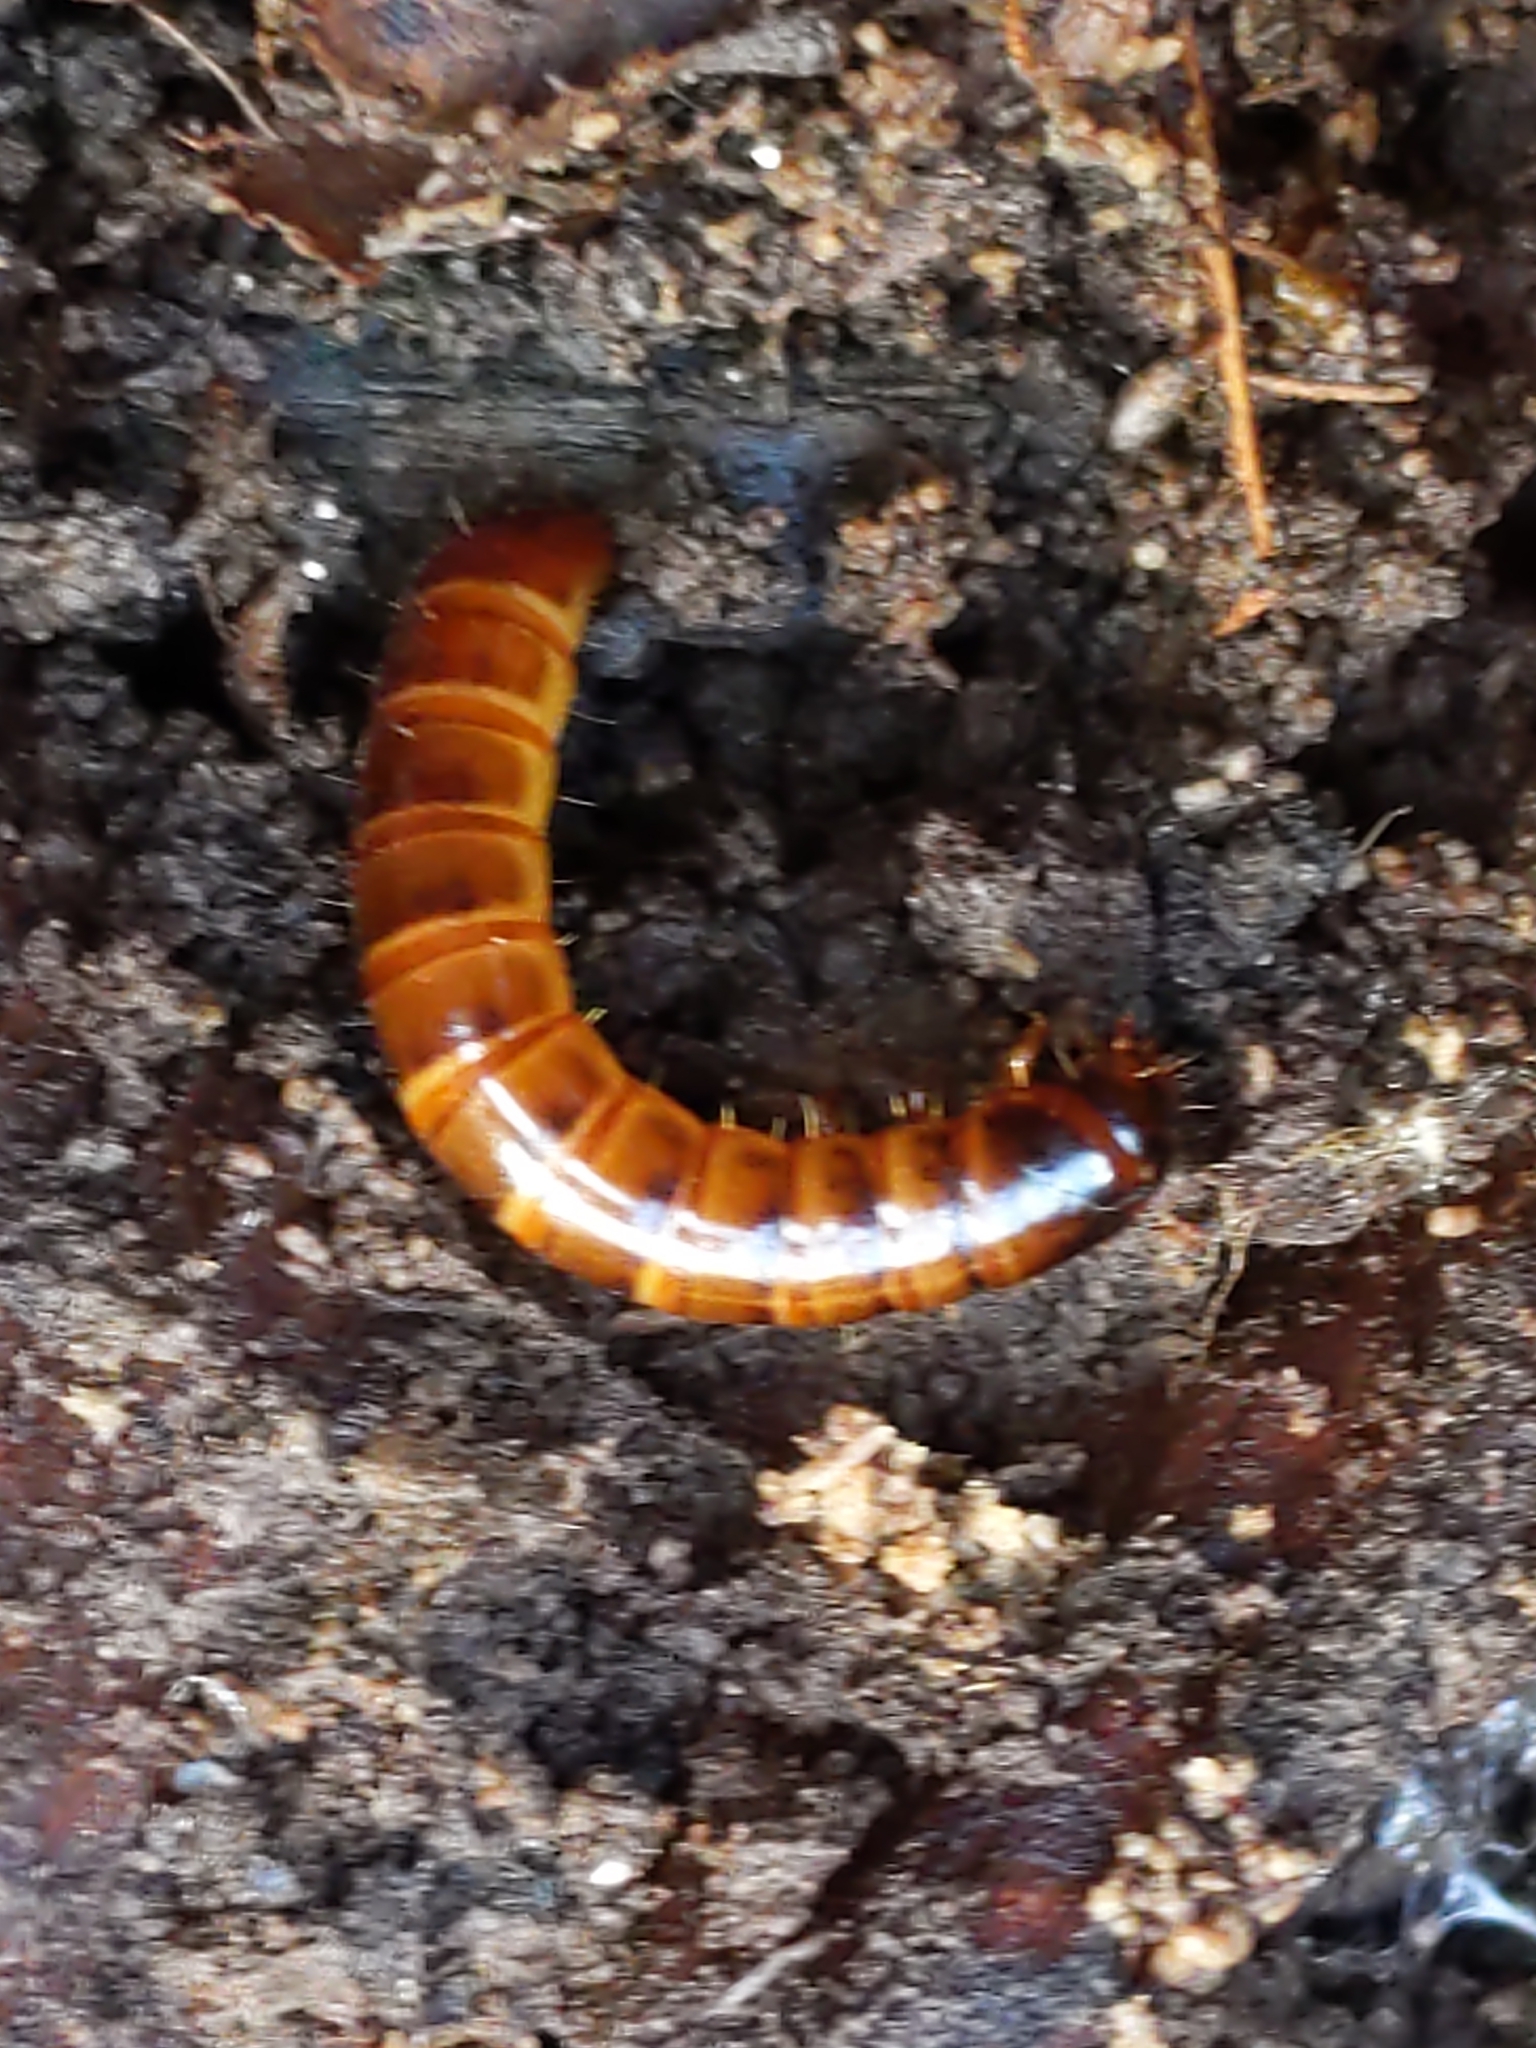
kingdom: Animalia
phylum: Arthropoda
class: Insecta
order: Coleoptera
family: Tenebrionidae
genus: Meracantha
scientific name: Meracantha contracta
